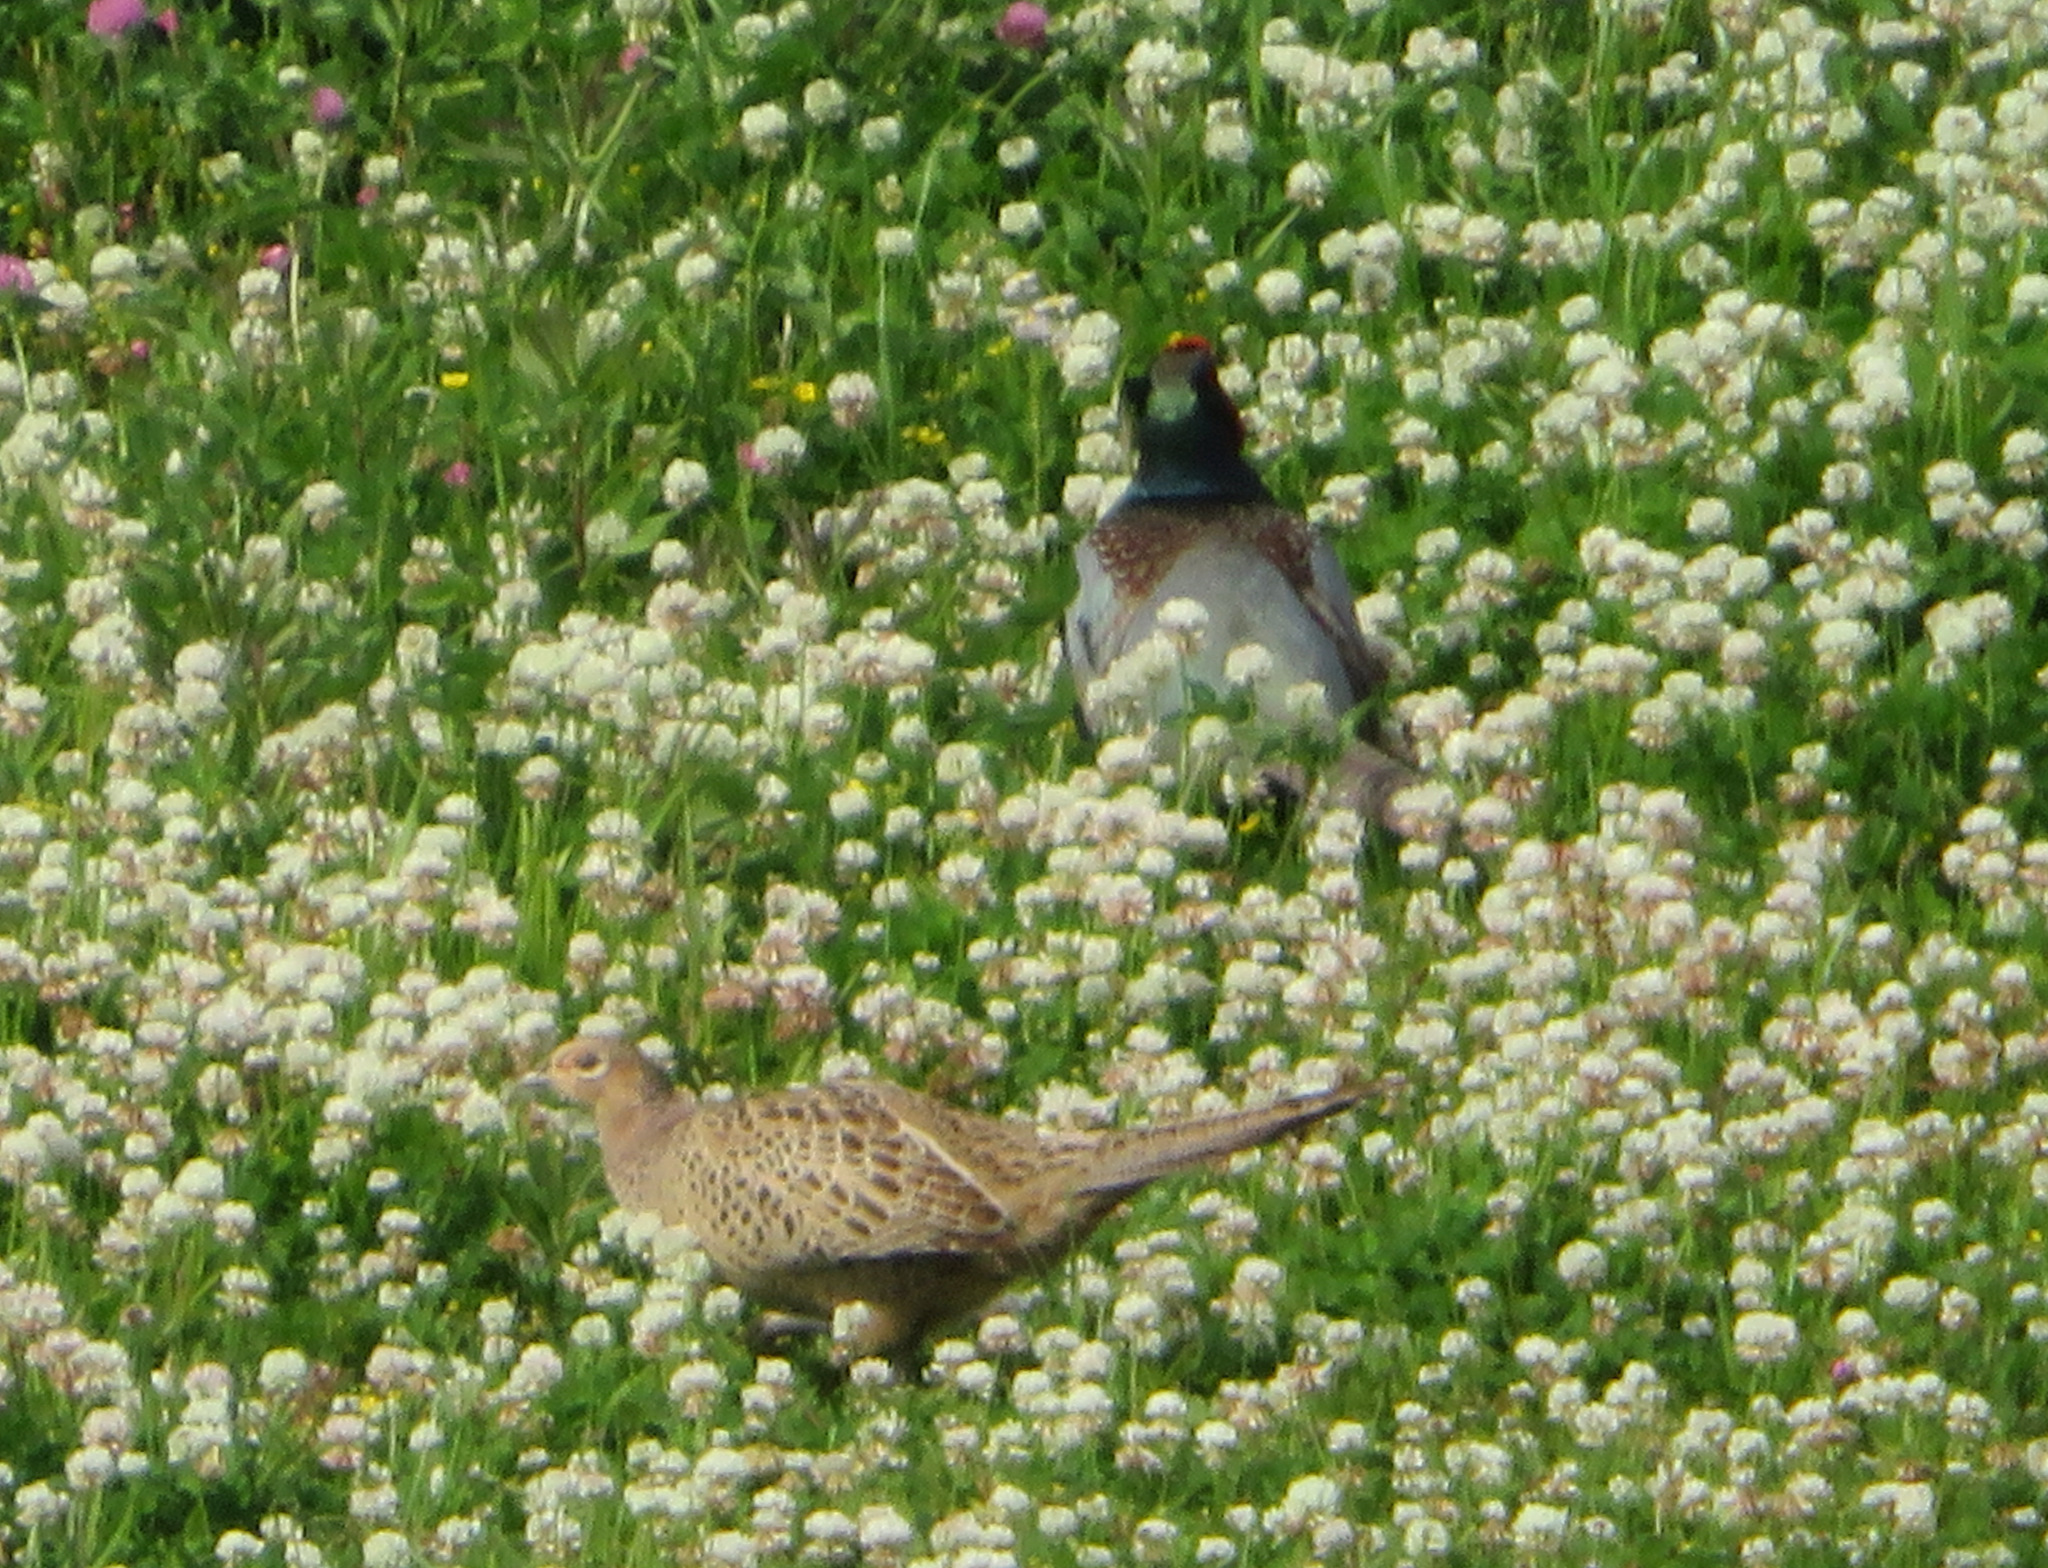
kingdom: Animalia
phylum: Chordata
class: Aves
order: Galliformes
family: Phasianidae
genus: Phasianus
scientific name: Phasianus versicolor
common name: Green pheasant
